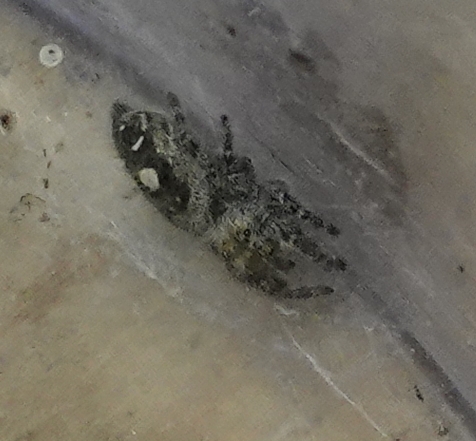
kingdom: Animalia
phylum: Arthropoda
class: Arachnida
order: Araneae
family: Salticidae
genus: Phidippus
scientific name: Phidippus audax
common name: Bold jumper
